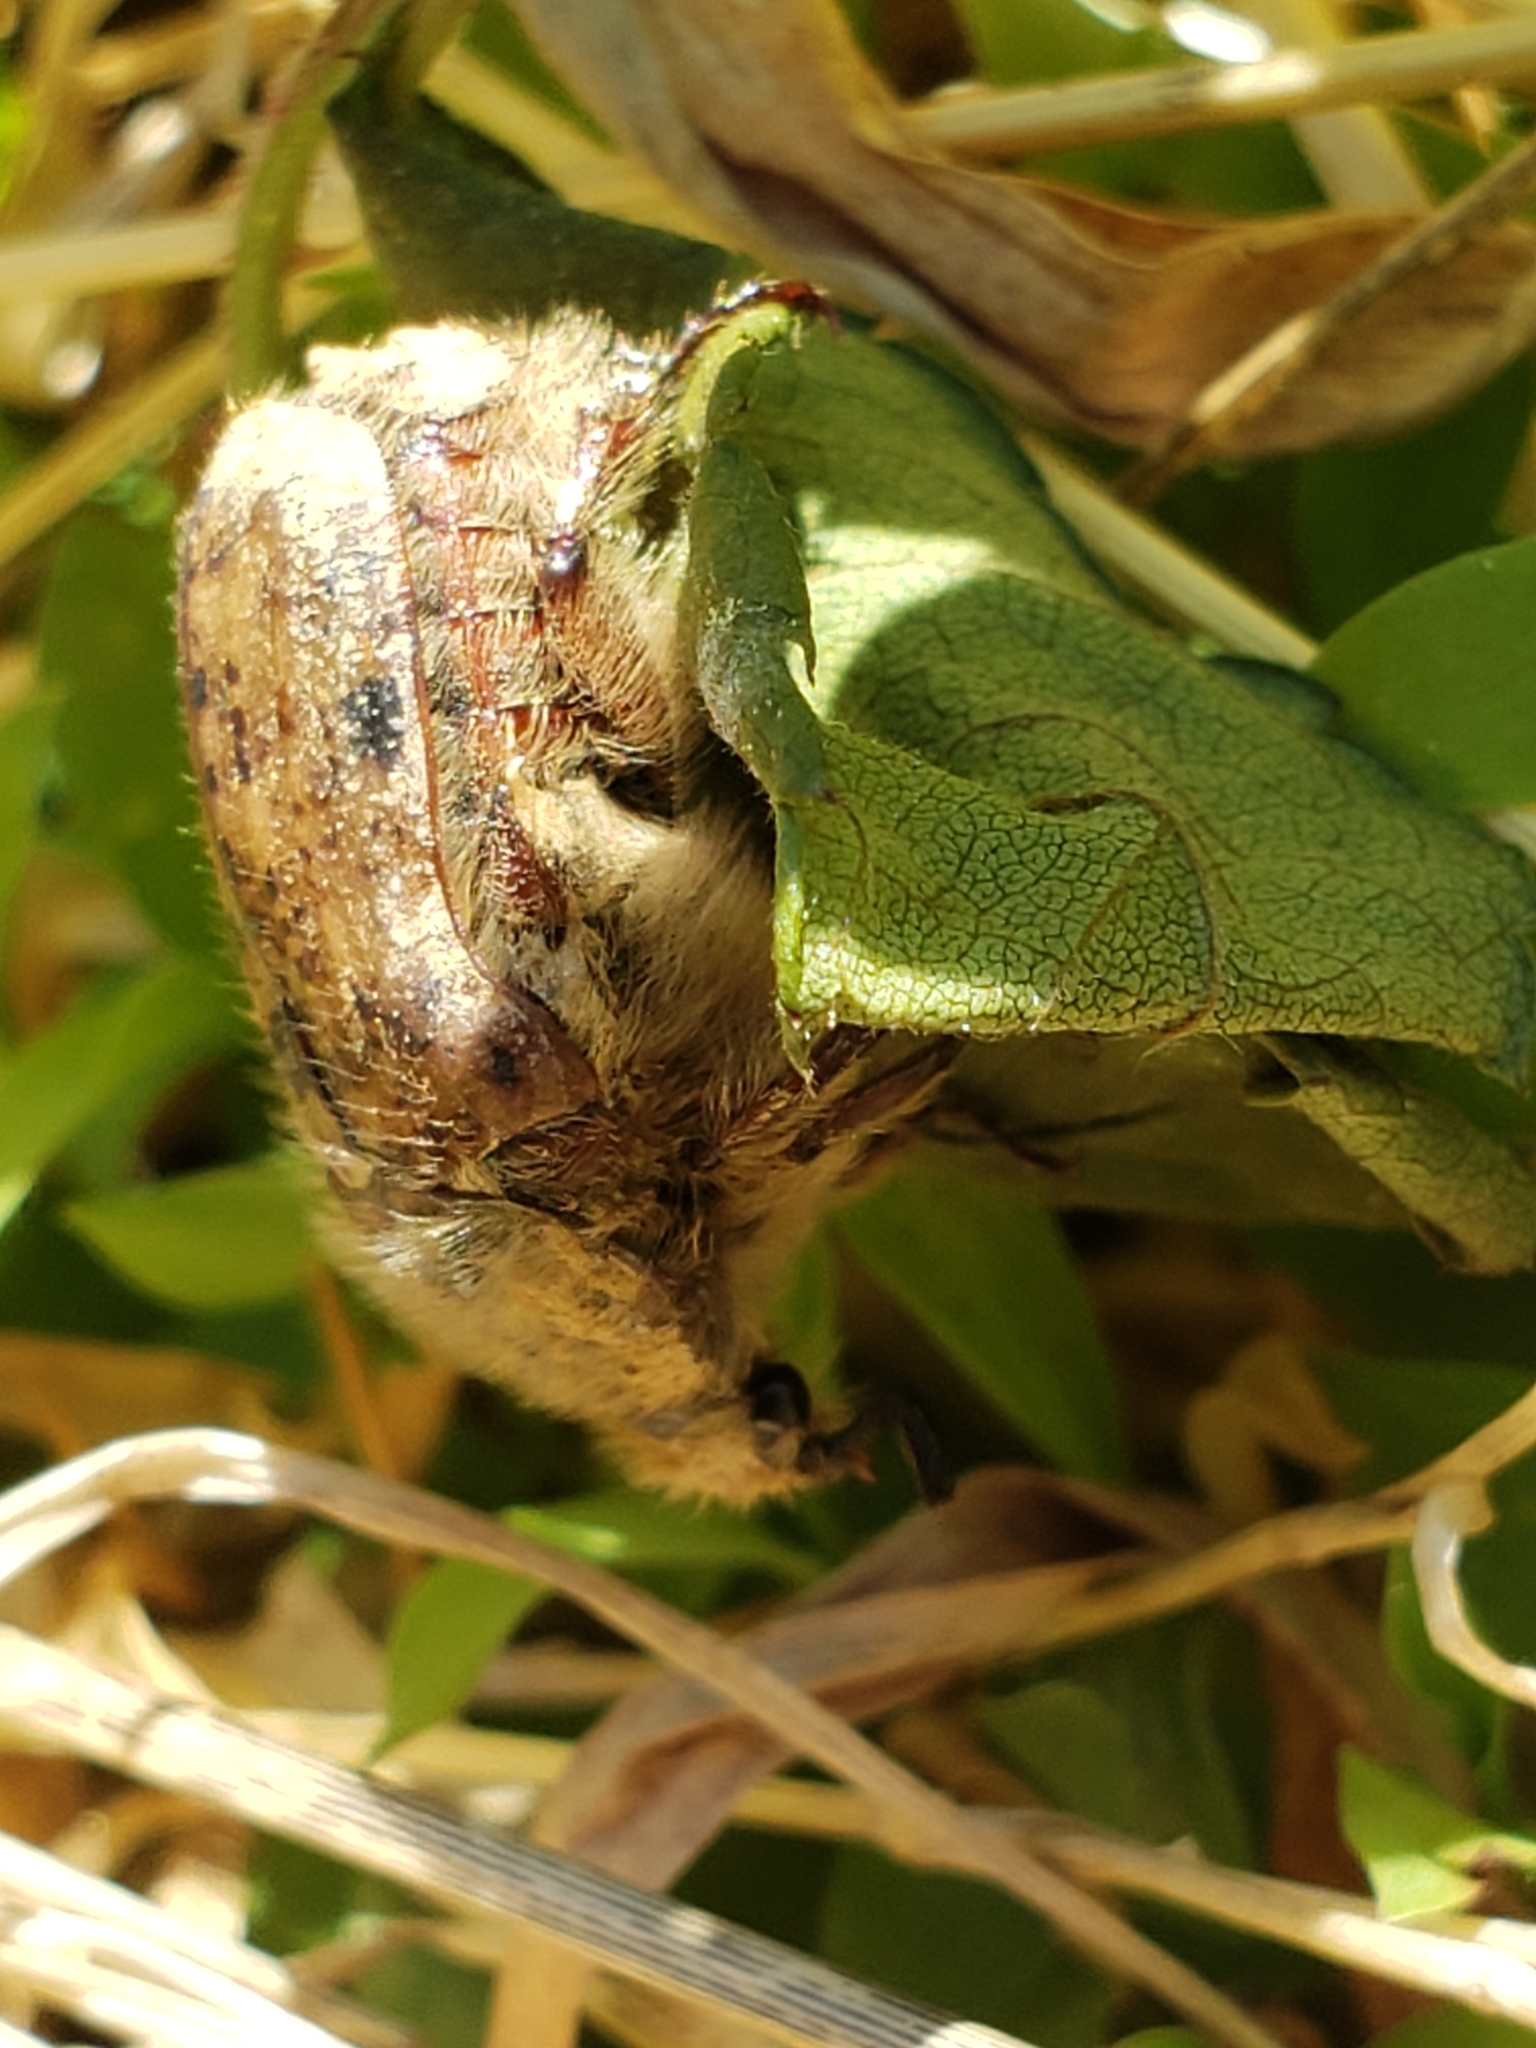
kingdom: Animalia
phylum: Arthropoda
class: Insecta
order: Coleoptera
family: Scarabaeidae
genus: Euphoria
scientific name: Euphoria inda
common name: Bumble flower beetle
